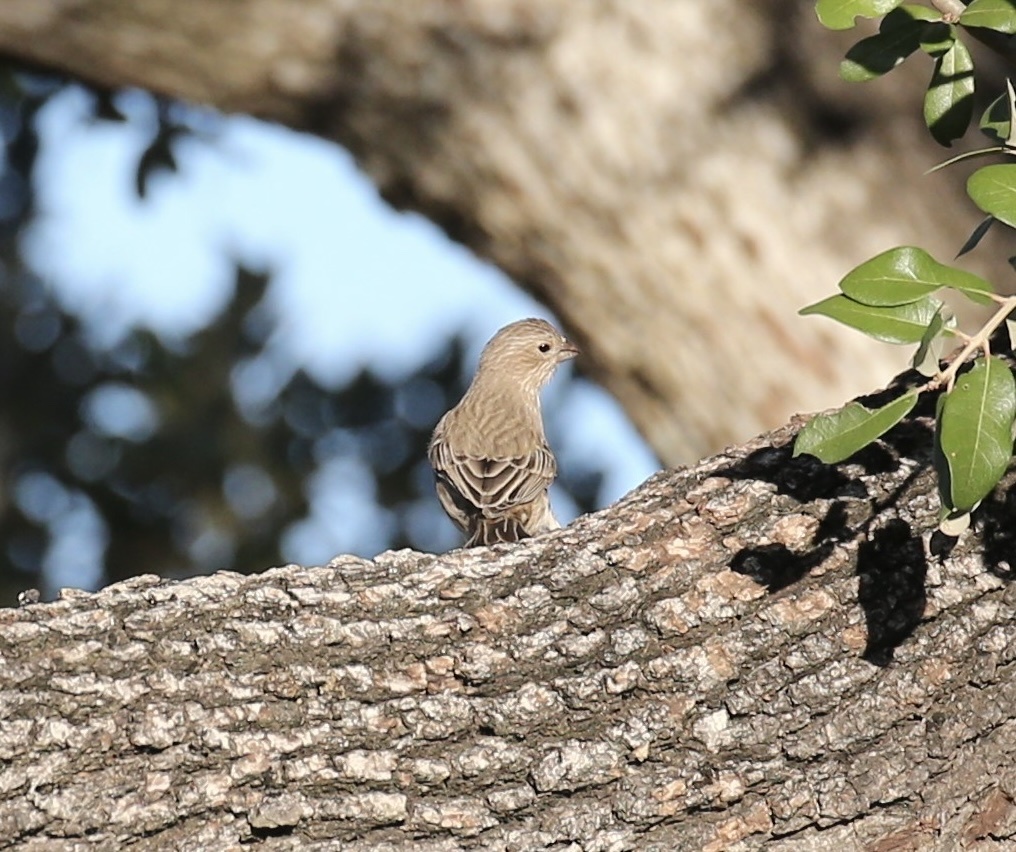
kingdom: Animalia
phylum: Chordata
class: Aves
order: Passeriformes
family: Fringillidae
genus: Haemorhous
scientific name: Haemorhous mexicanus
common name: House finch
